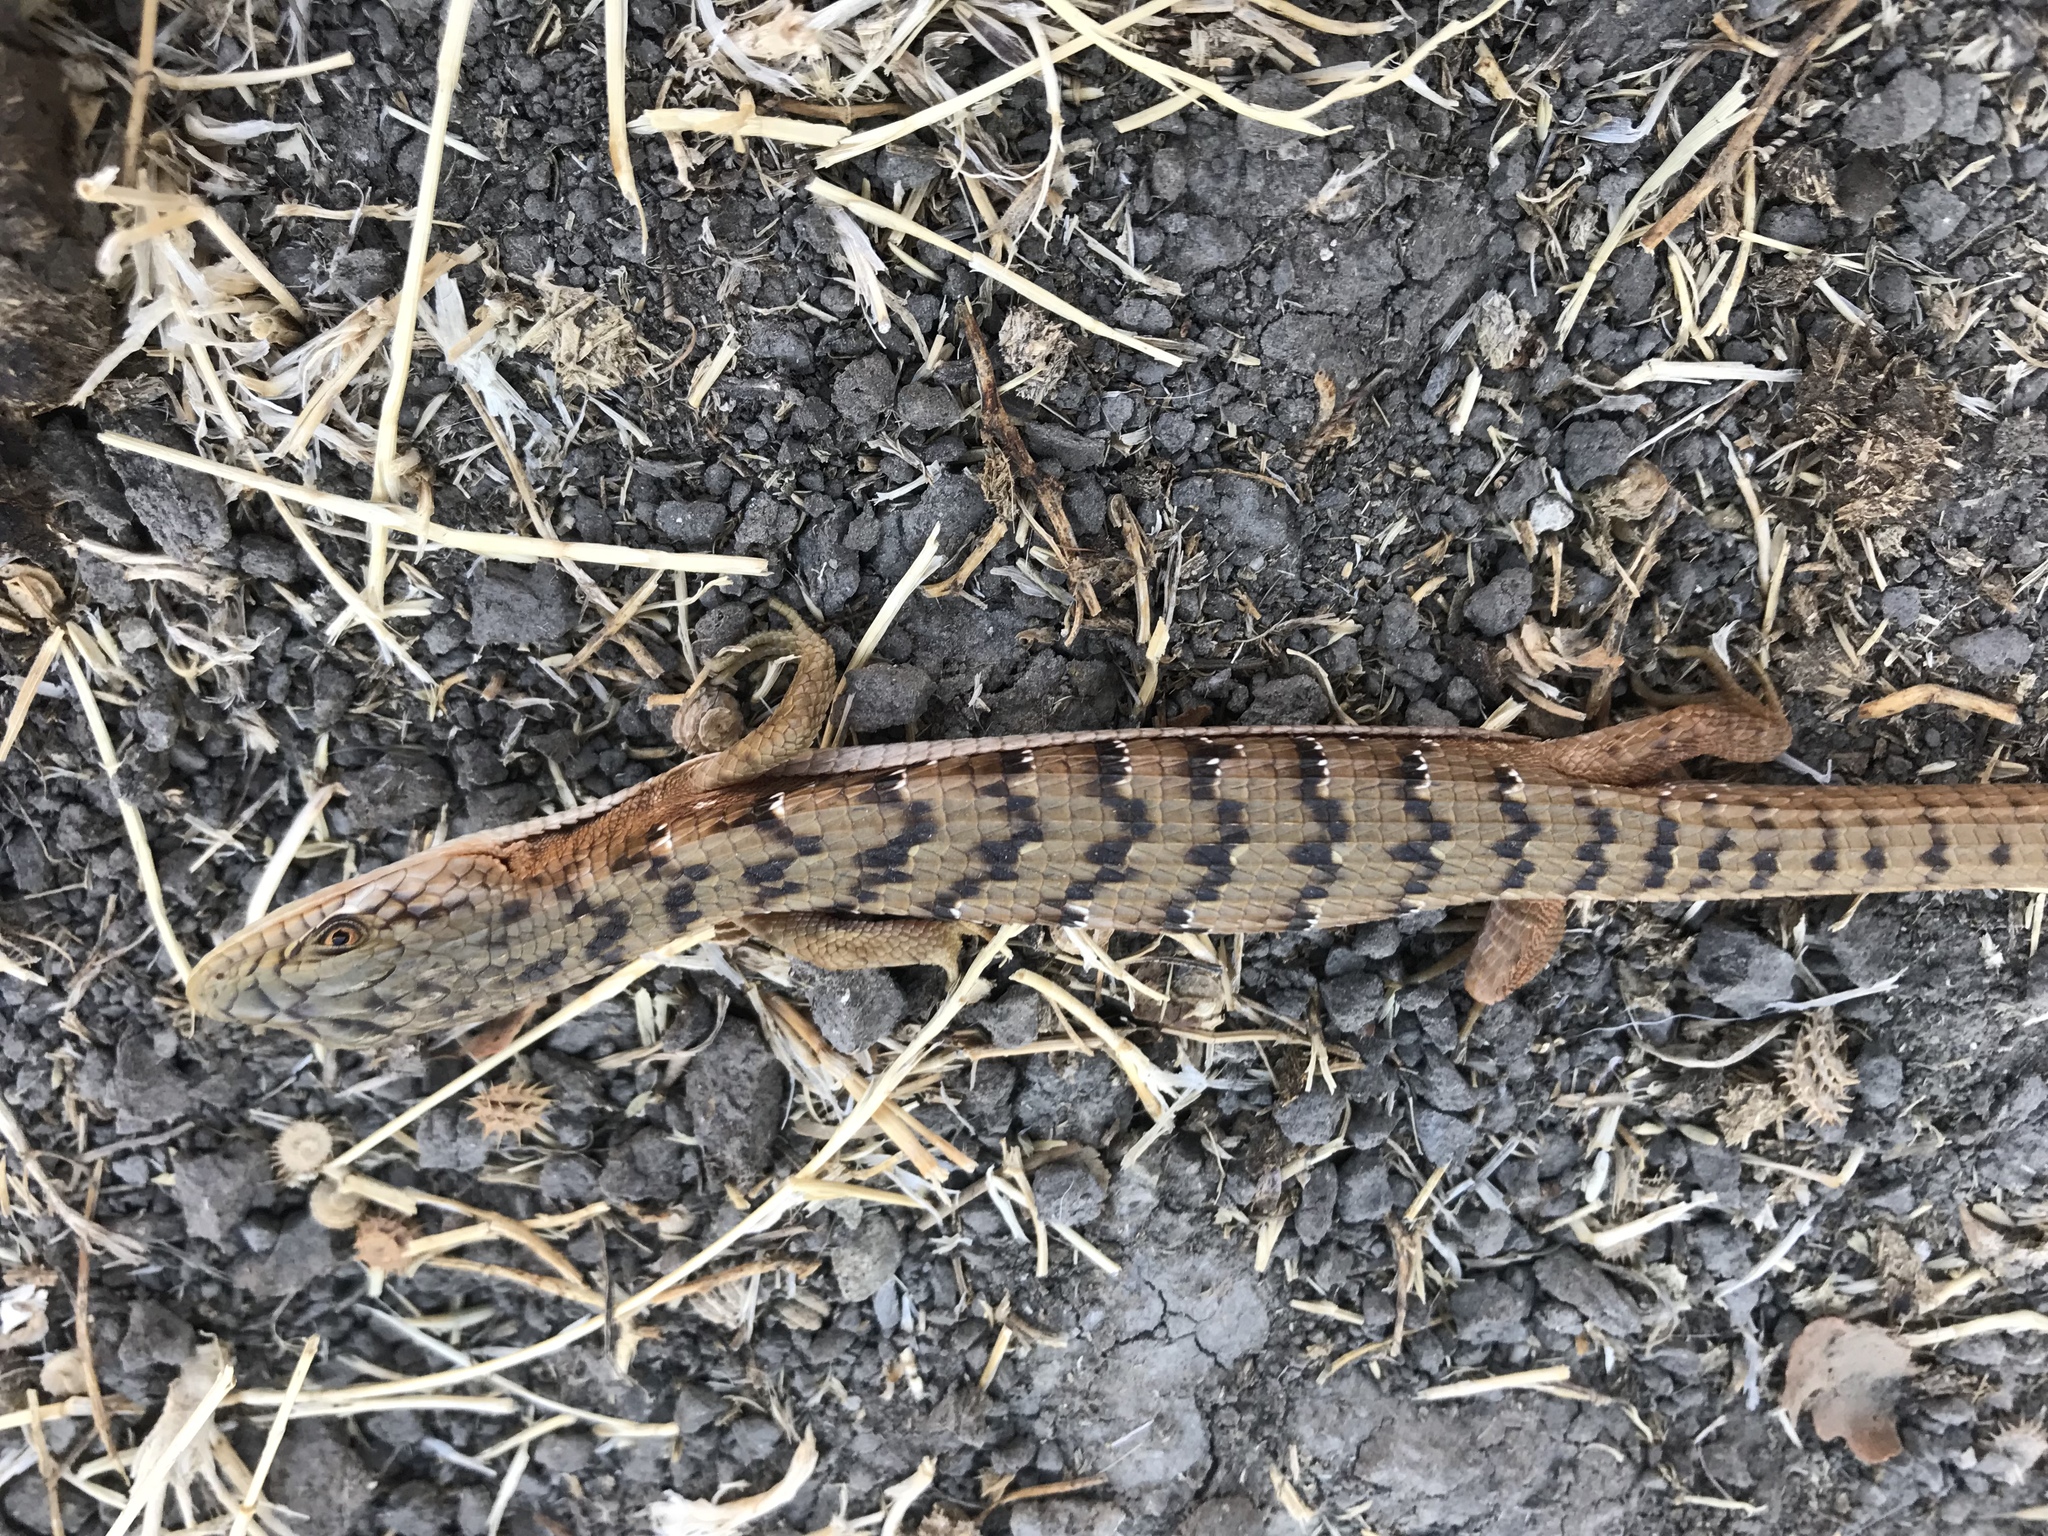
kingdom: Animalia
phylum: Chordata
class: Squamata
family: Anguidae
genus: Elgaria
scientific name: Elgaria multicarinata
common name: Southern alligator lizard
